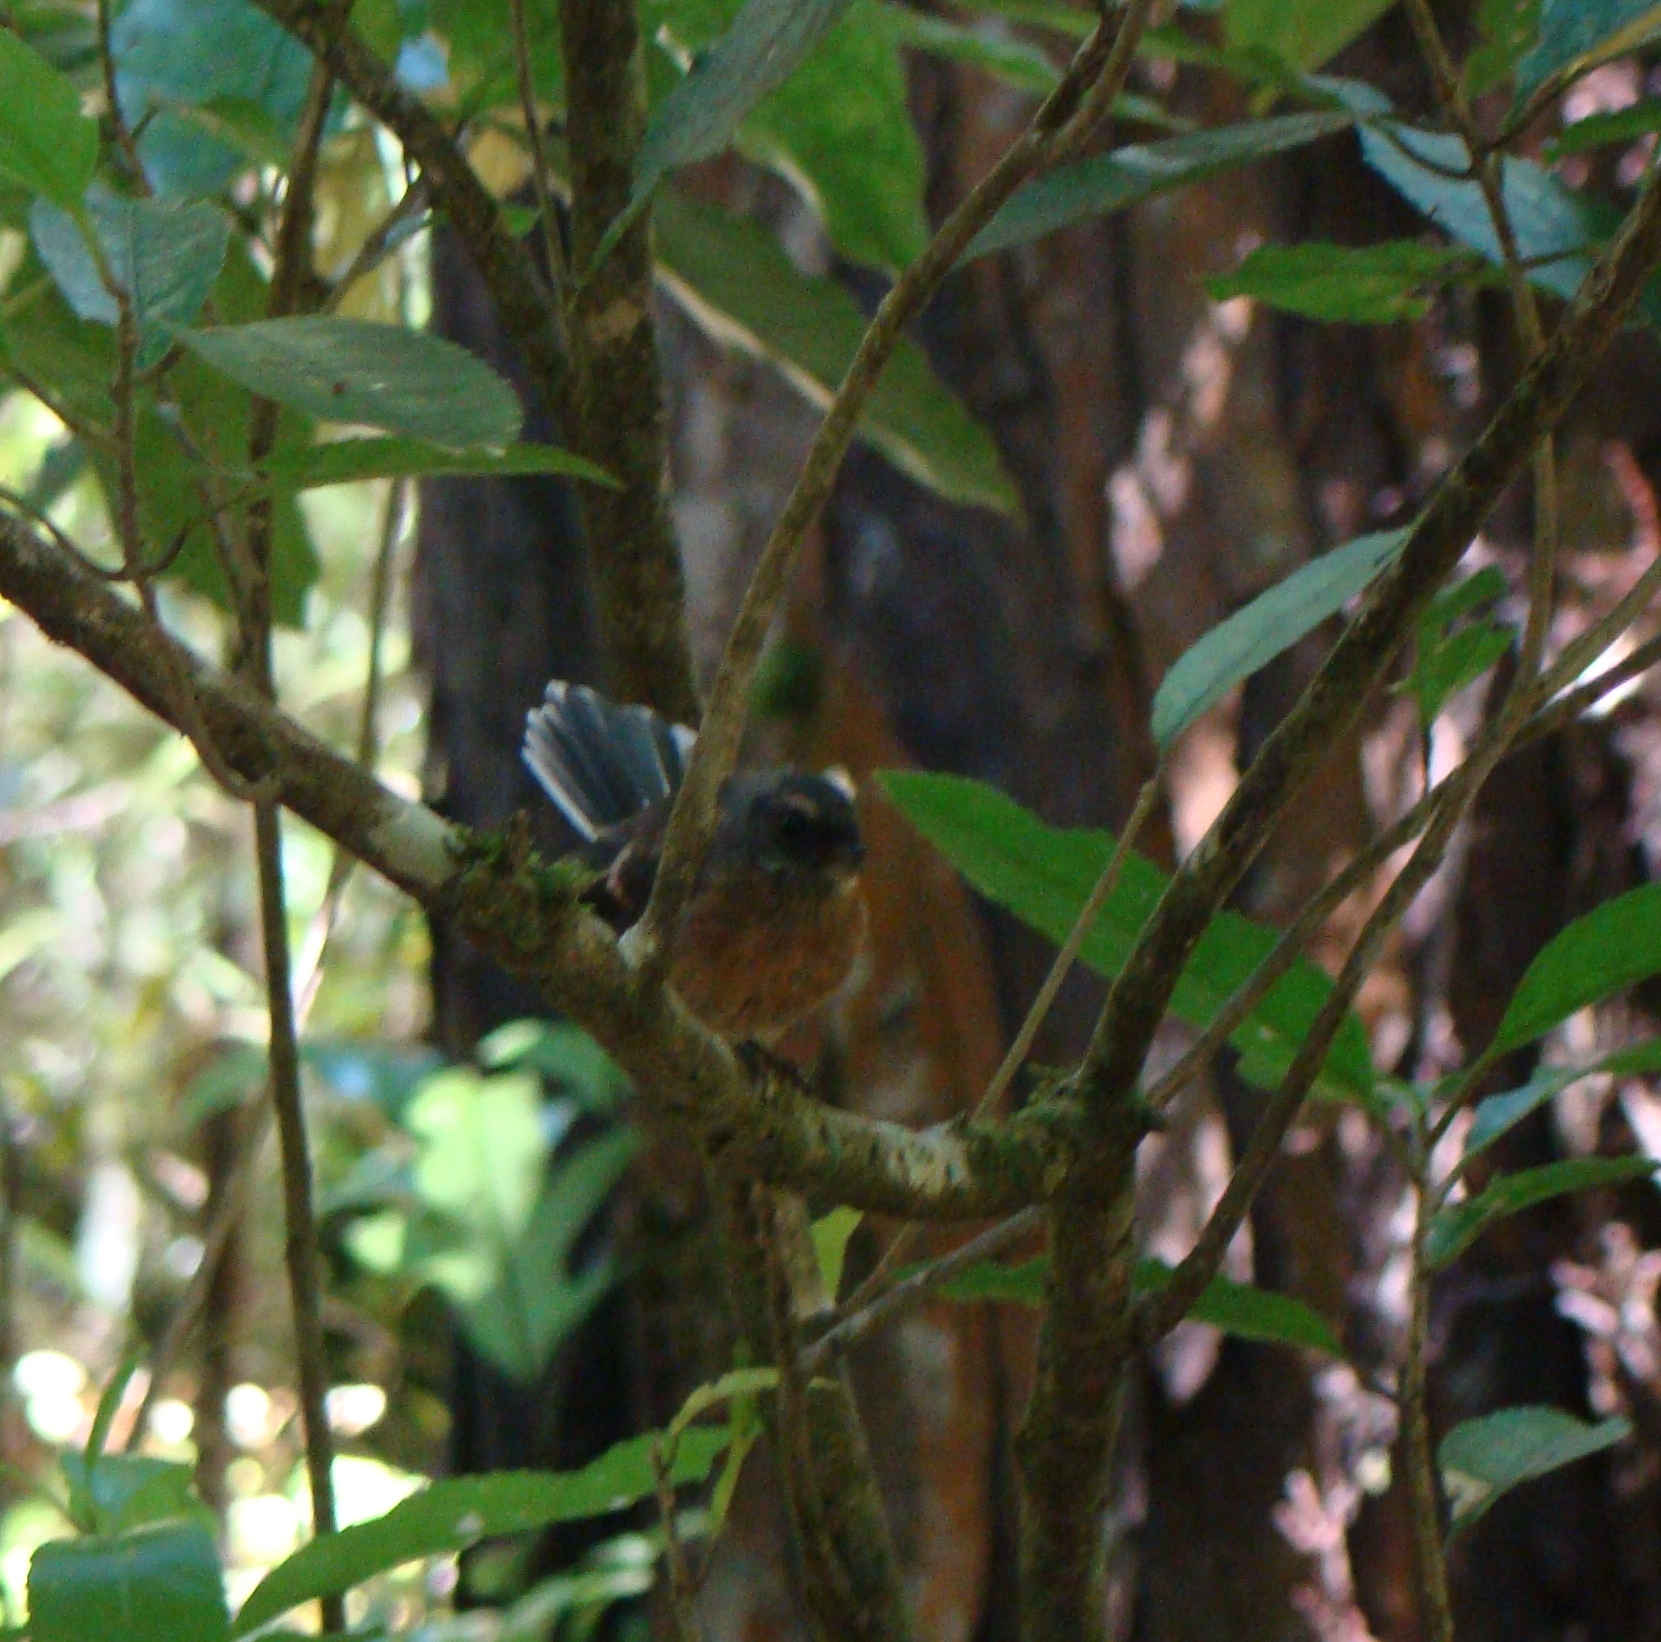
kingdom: Animalia
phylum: Chordata
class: Aves
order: Passeriformes
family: Rhipiduridae
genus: Rhipidura
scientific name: Rhipidura fuliginosa
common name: New zealand fantail
